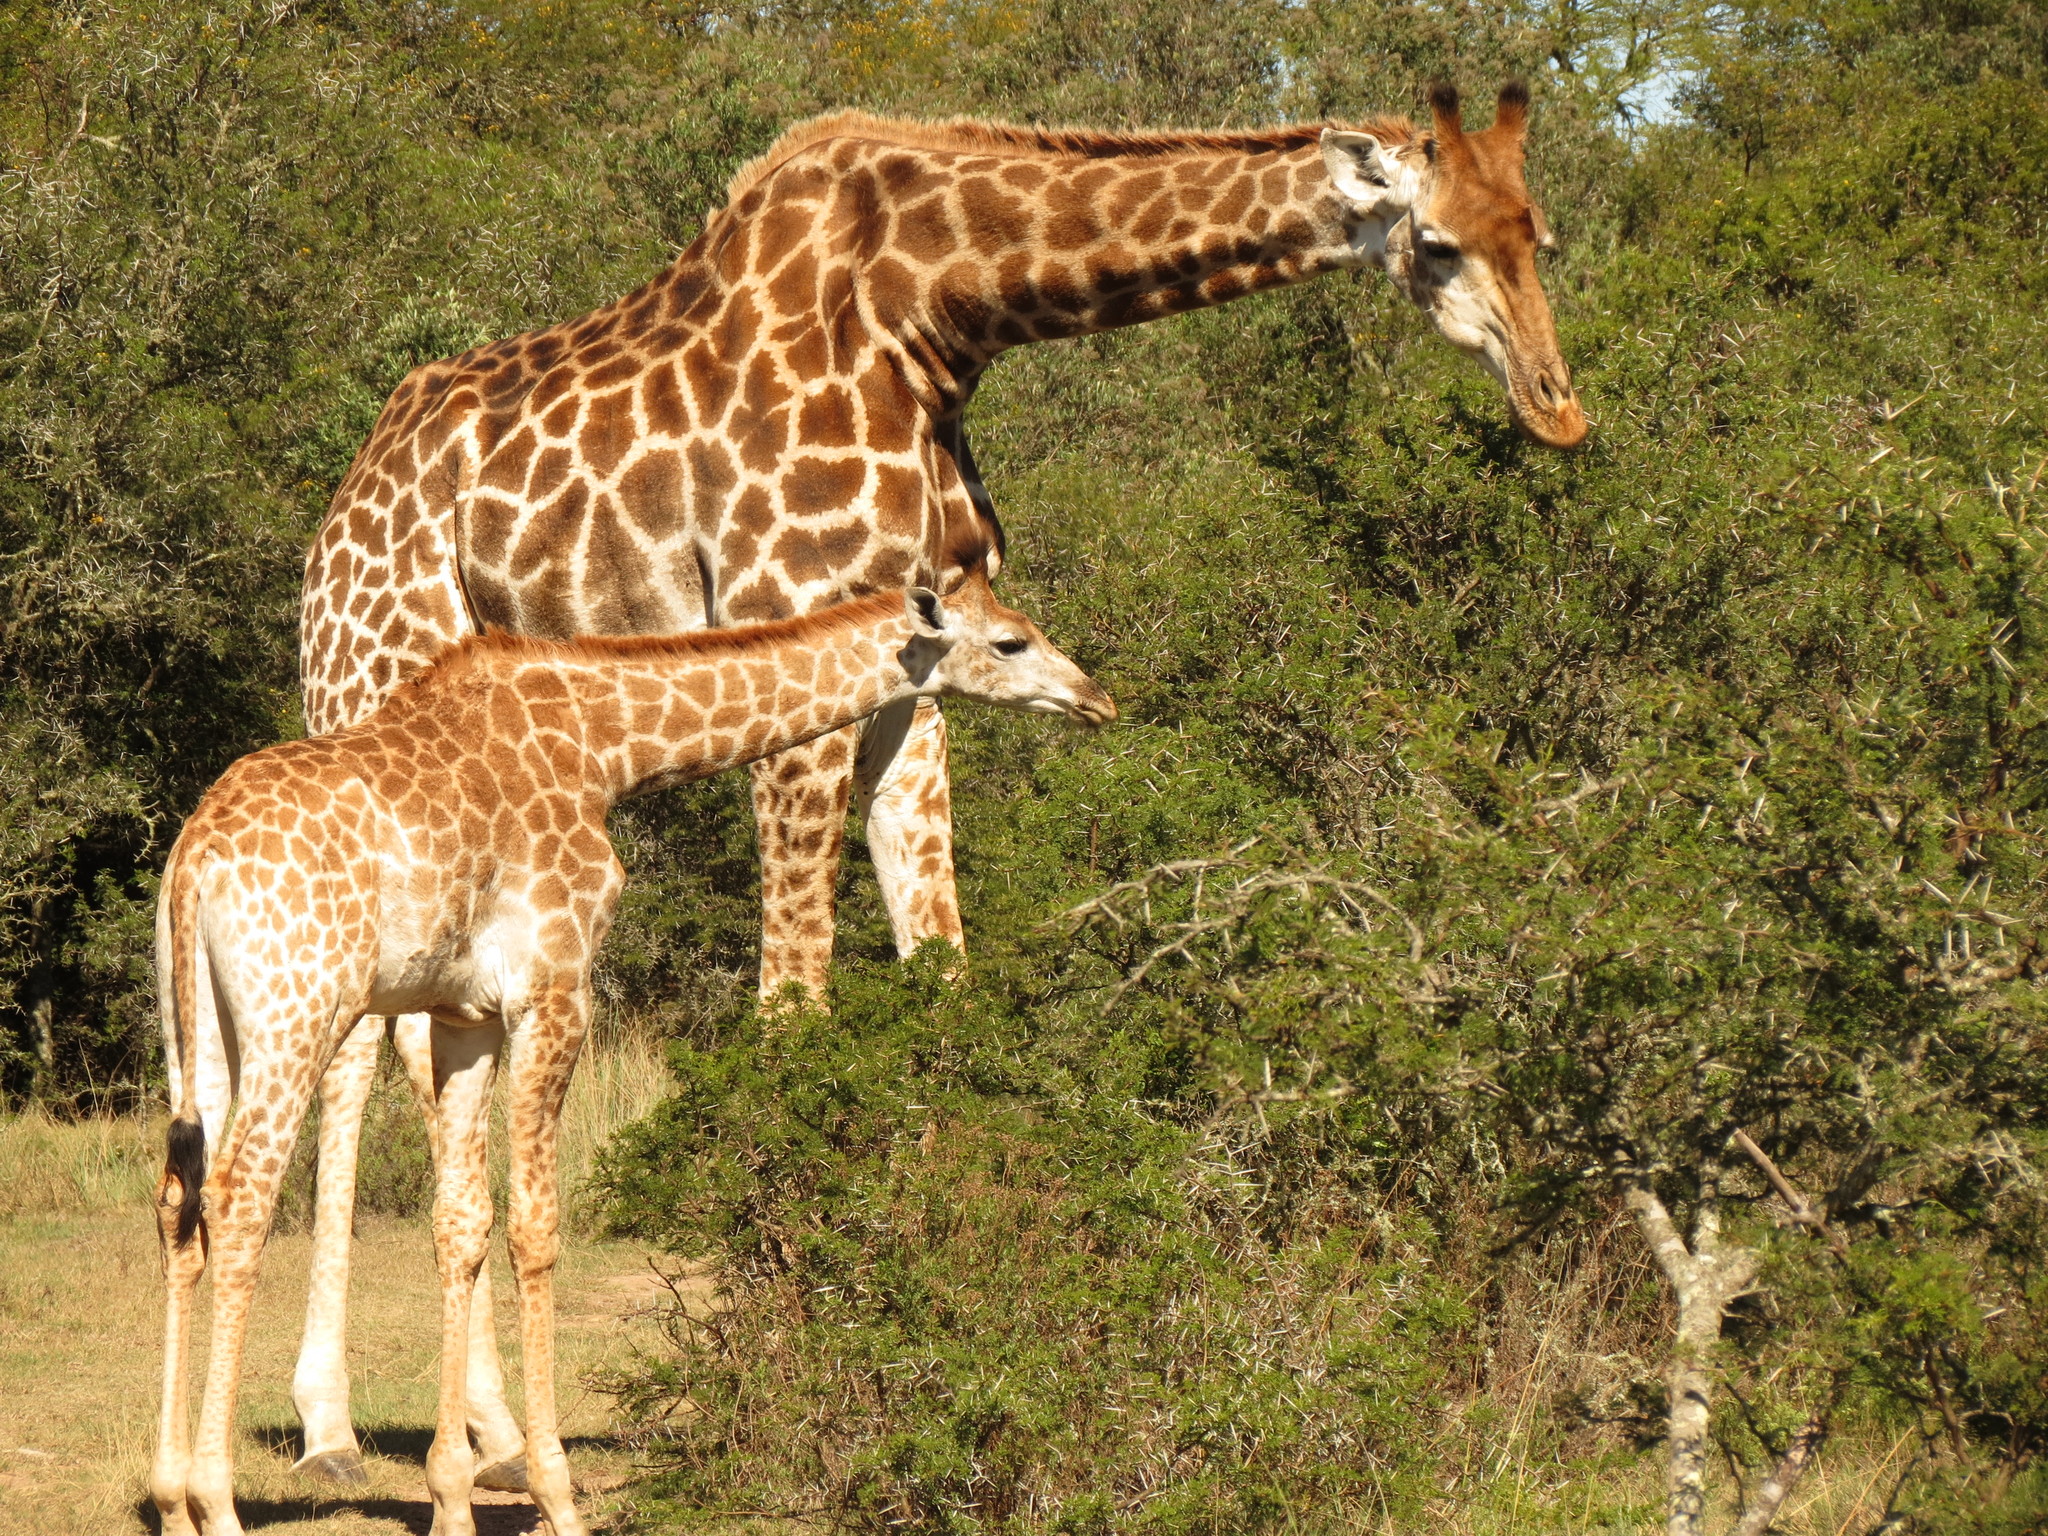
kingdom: Animalia
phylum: Chordata
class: Mammalia
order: Artiodactyla
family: Giraffidae
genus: Giraffa
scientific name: Giraffa giraffa
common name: Southern giraffe
